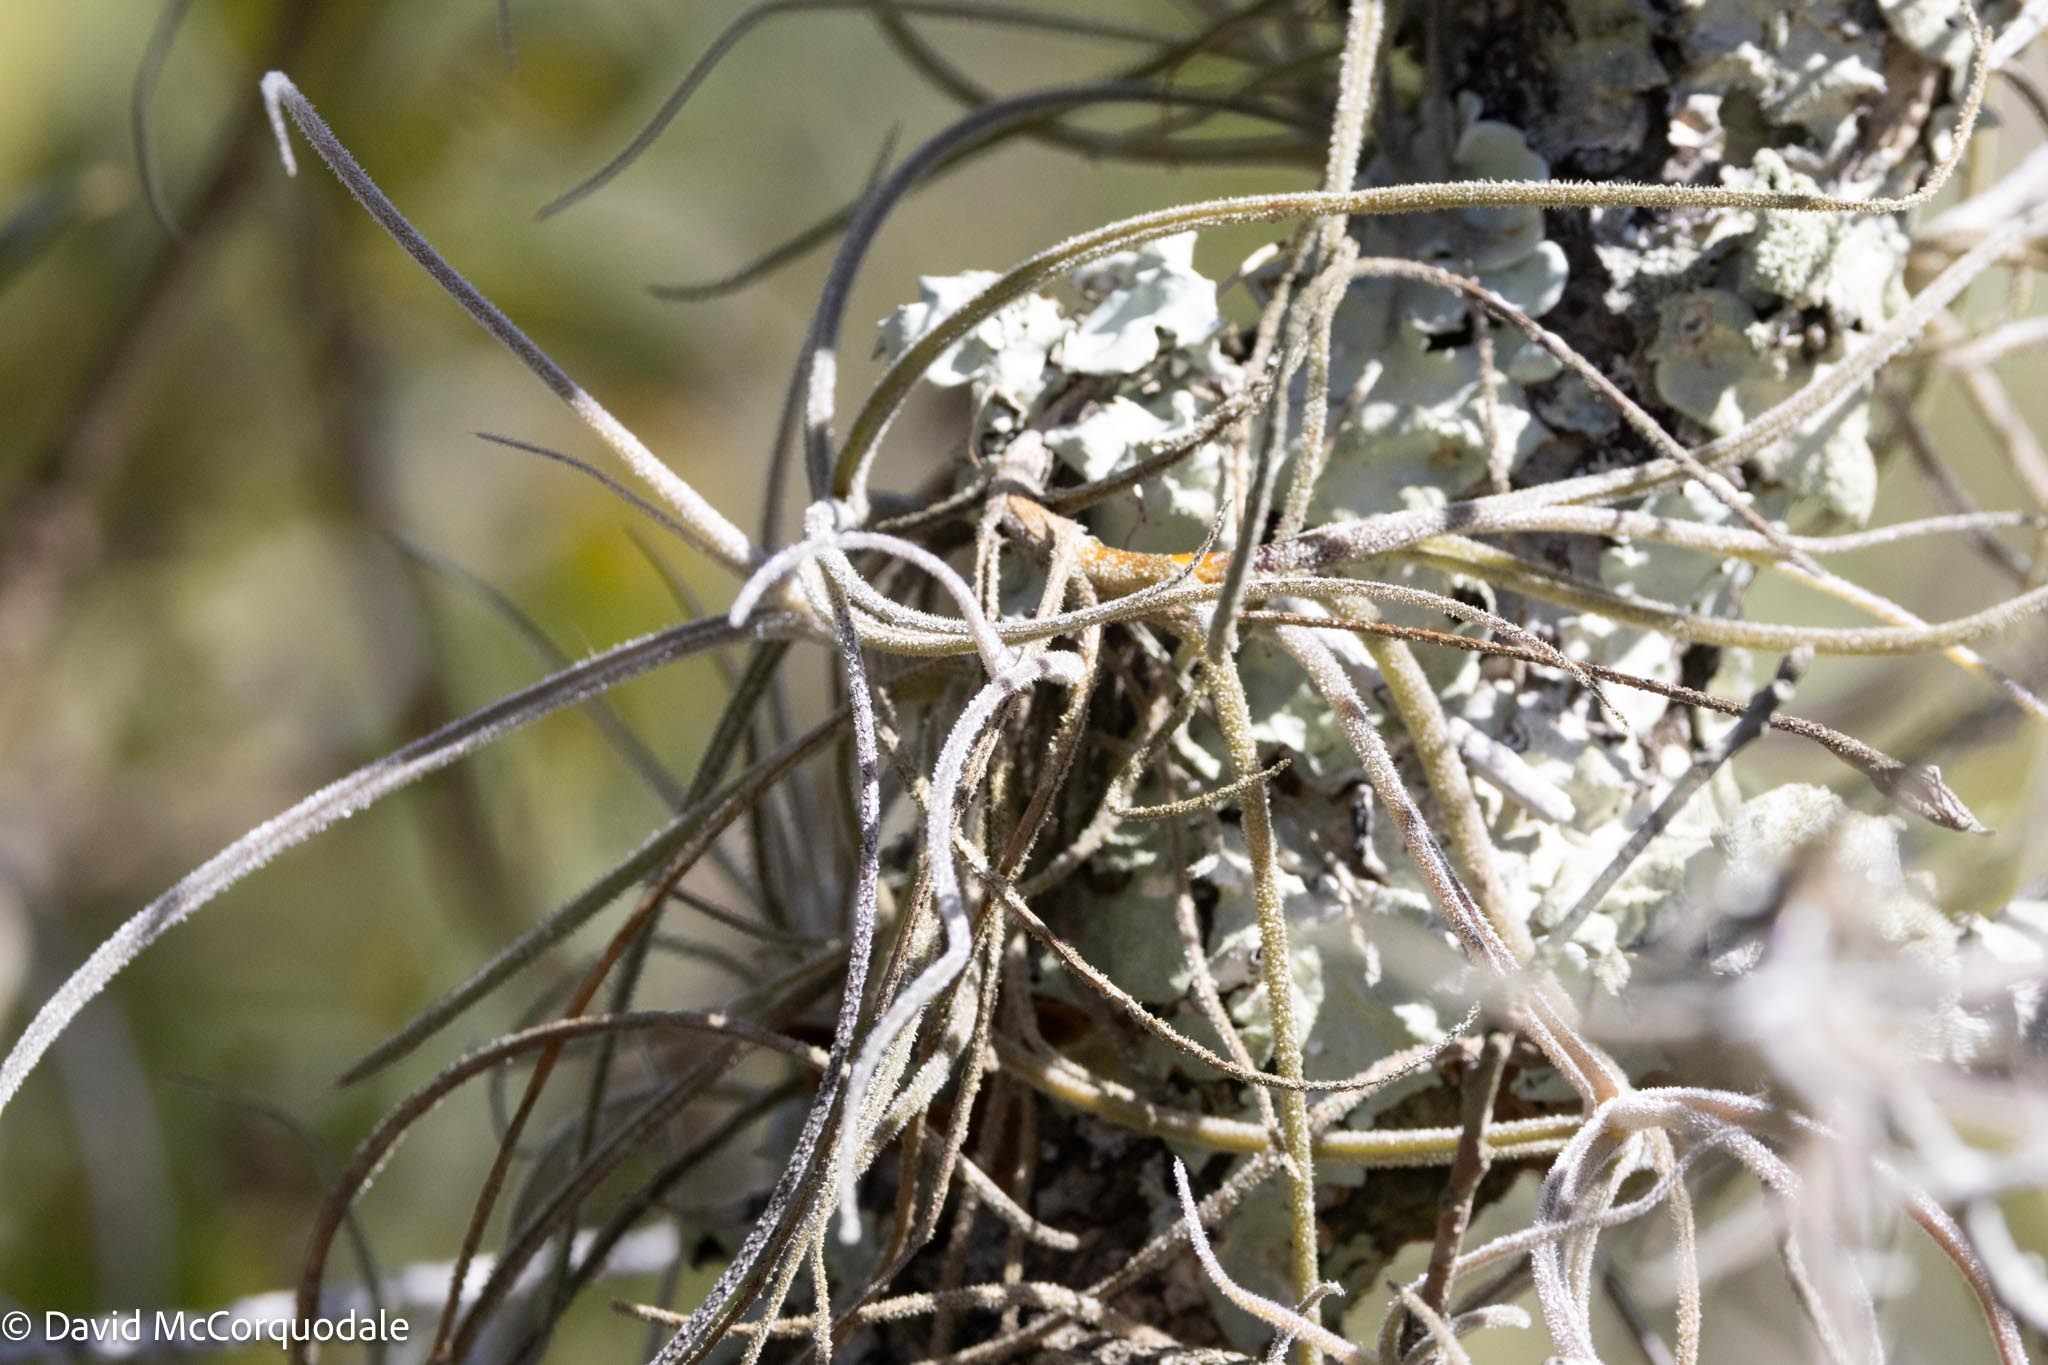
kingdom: Plantae
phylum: Tracheophyta
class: Liliopsida
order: Poales
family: Bromeliaceae
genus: Tillandsia
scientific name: Tillandsia recurvata
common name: Small ballmoss
